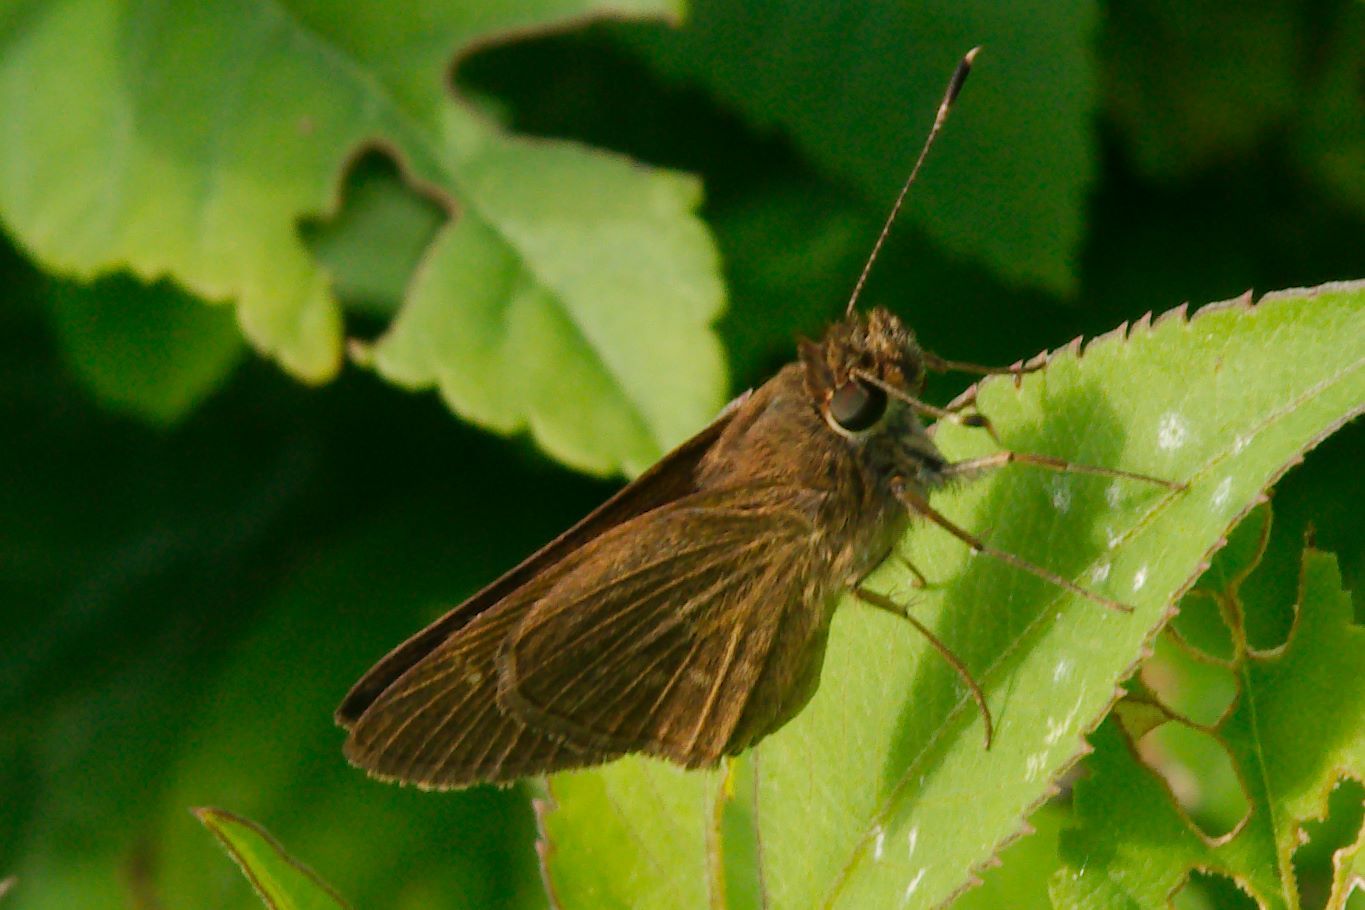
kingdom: Animalia
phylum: Arthropoda
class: Insecta
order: Lepidoptera
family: Hesperiidae
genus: Cymaenes
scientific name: Cymaenes tripunctus
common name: Dingy dotted skipper
